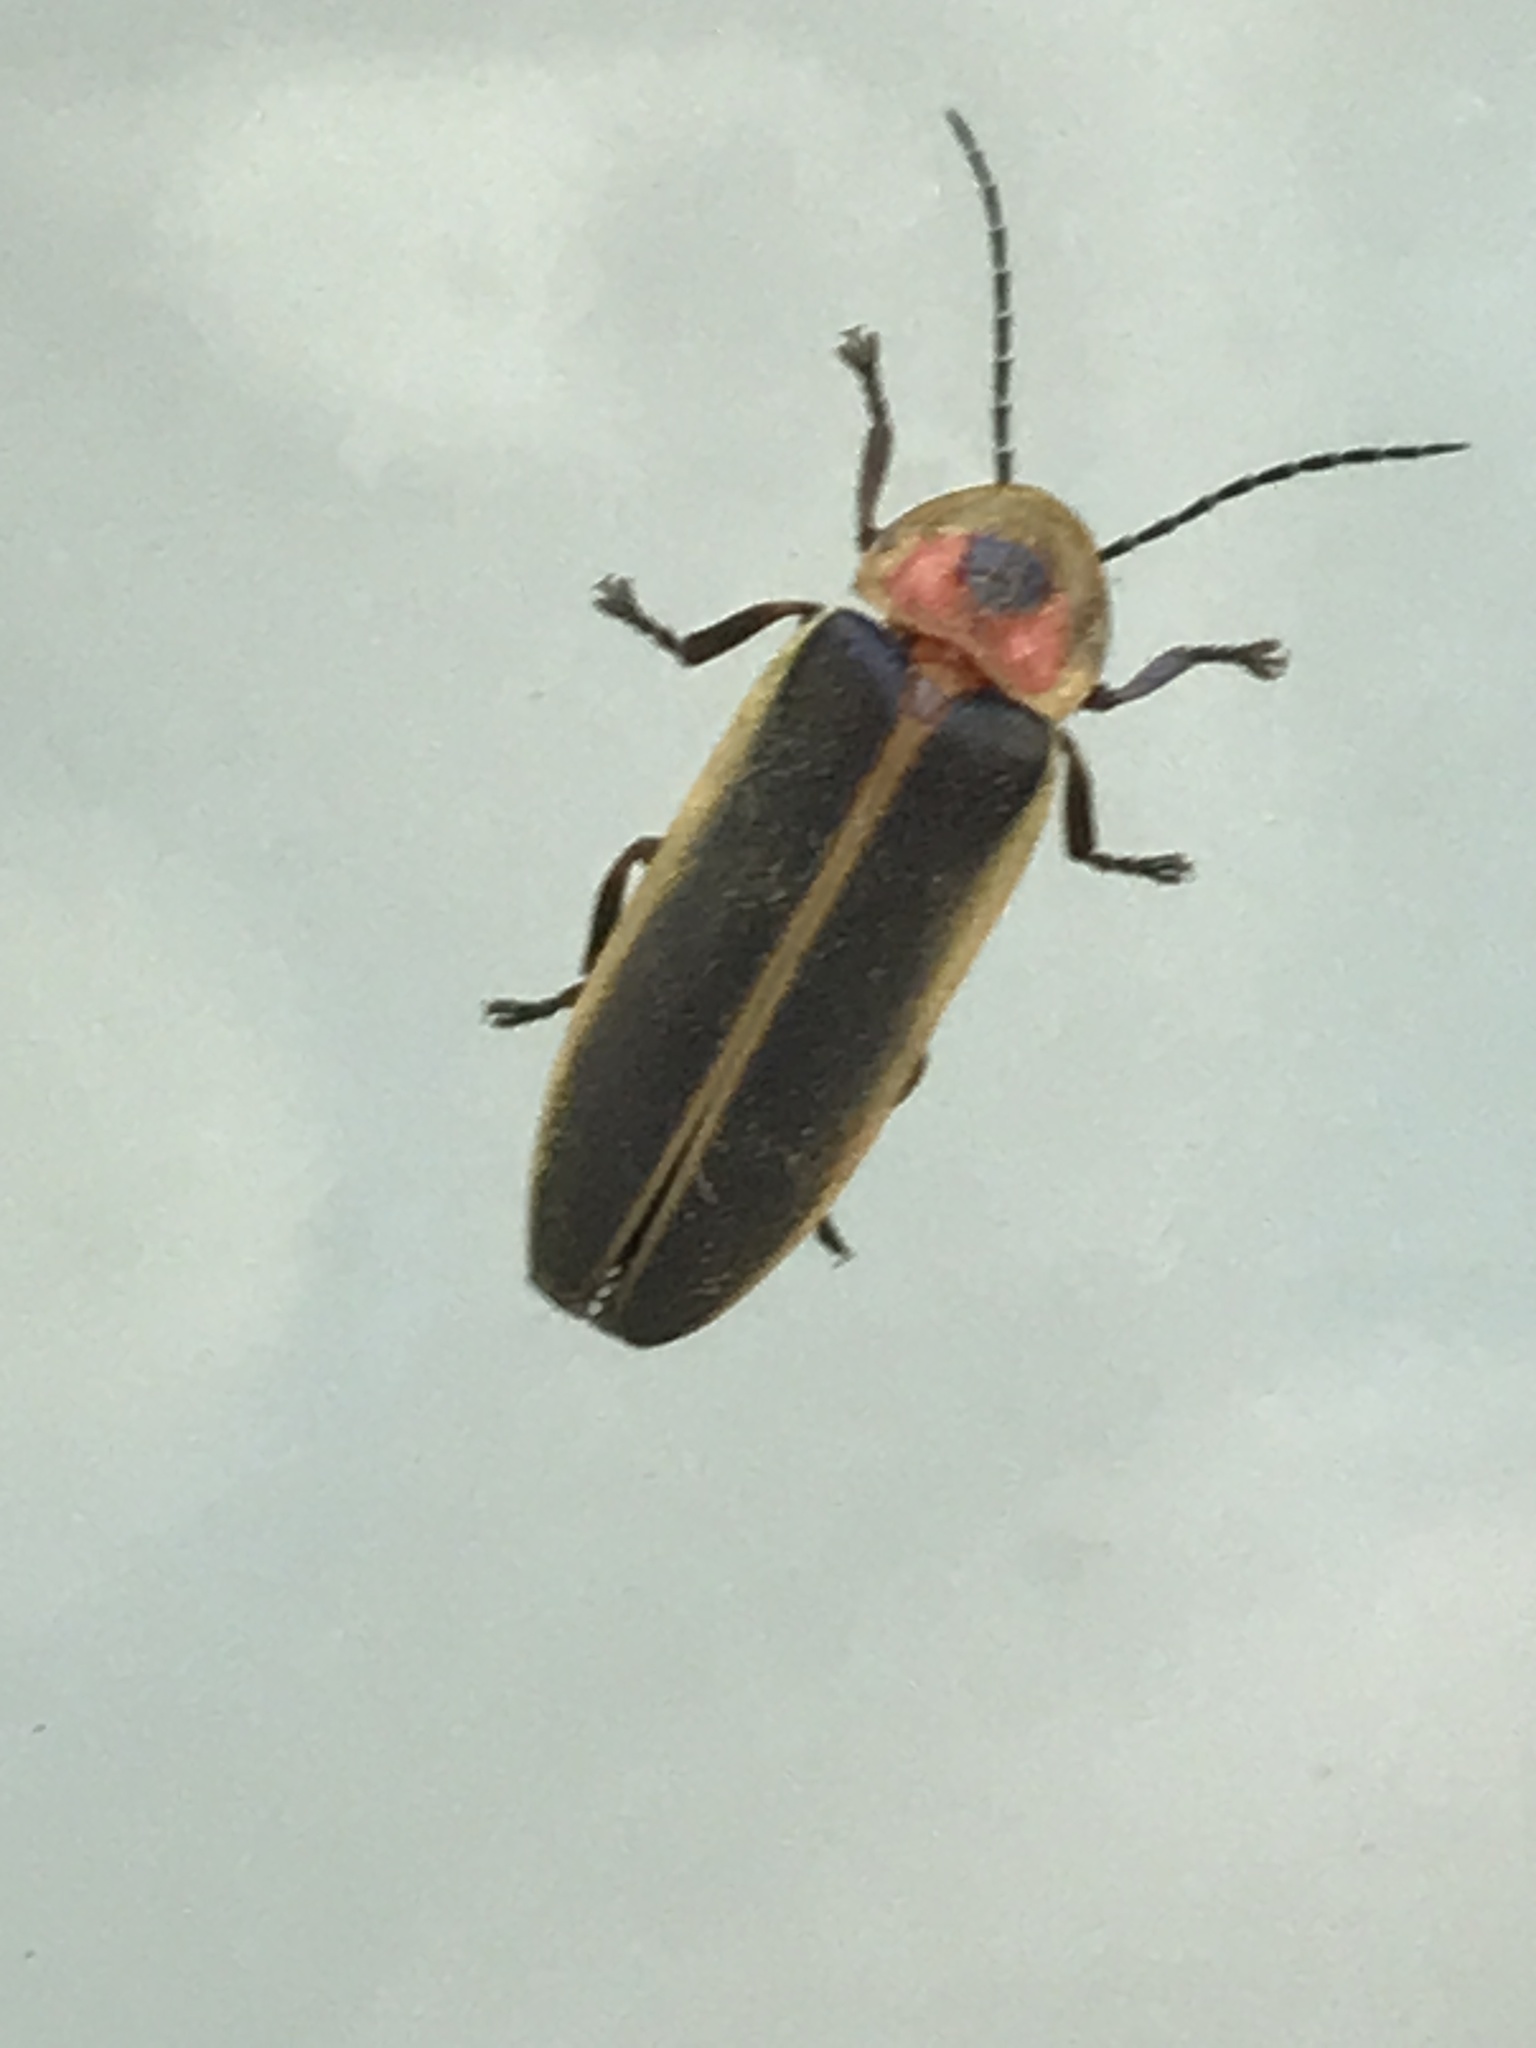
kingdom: Animalia
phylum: Arthropoda
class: Insecta
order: Coleoptera
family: Lampyridae
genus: Photinus
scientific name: Photinus pyralis
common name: Big dipper firefly
